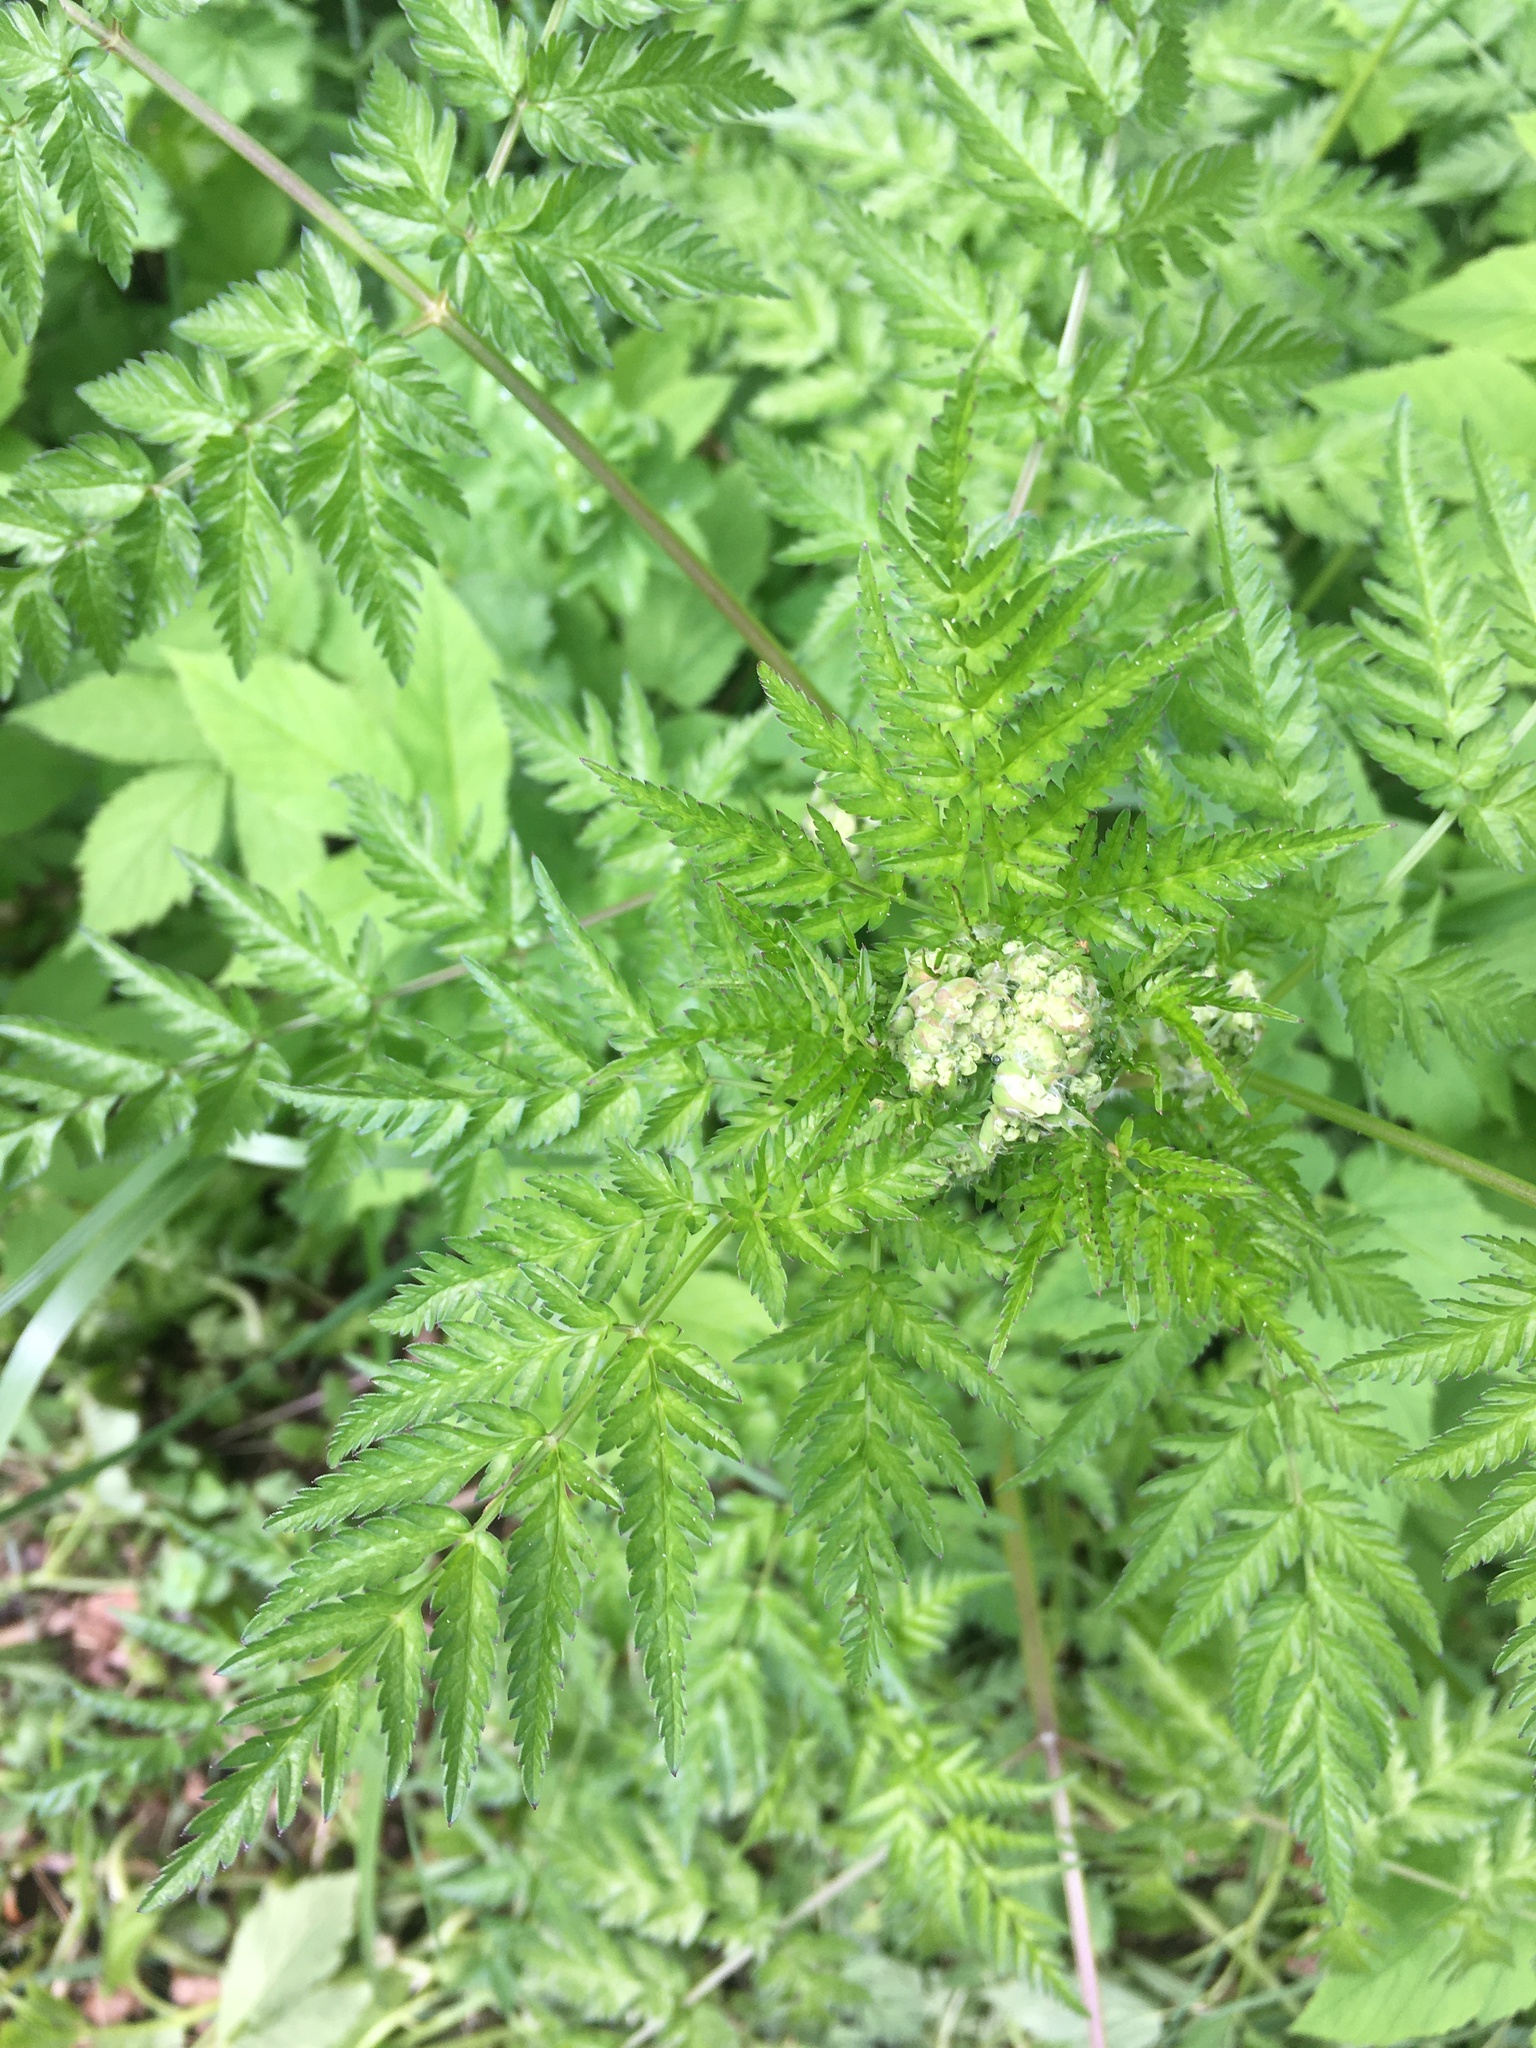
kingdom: Plantae
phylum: Tracheophyta
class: Magnoliopsida
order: Apiales
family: Apiaceae
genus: Anthriscus
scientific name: Anthriscus sylvestris
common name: Cow parsley
